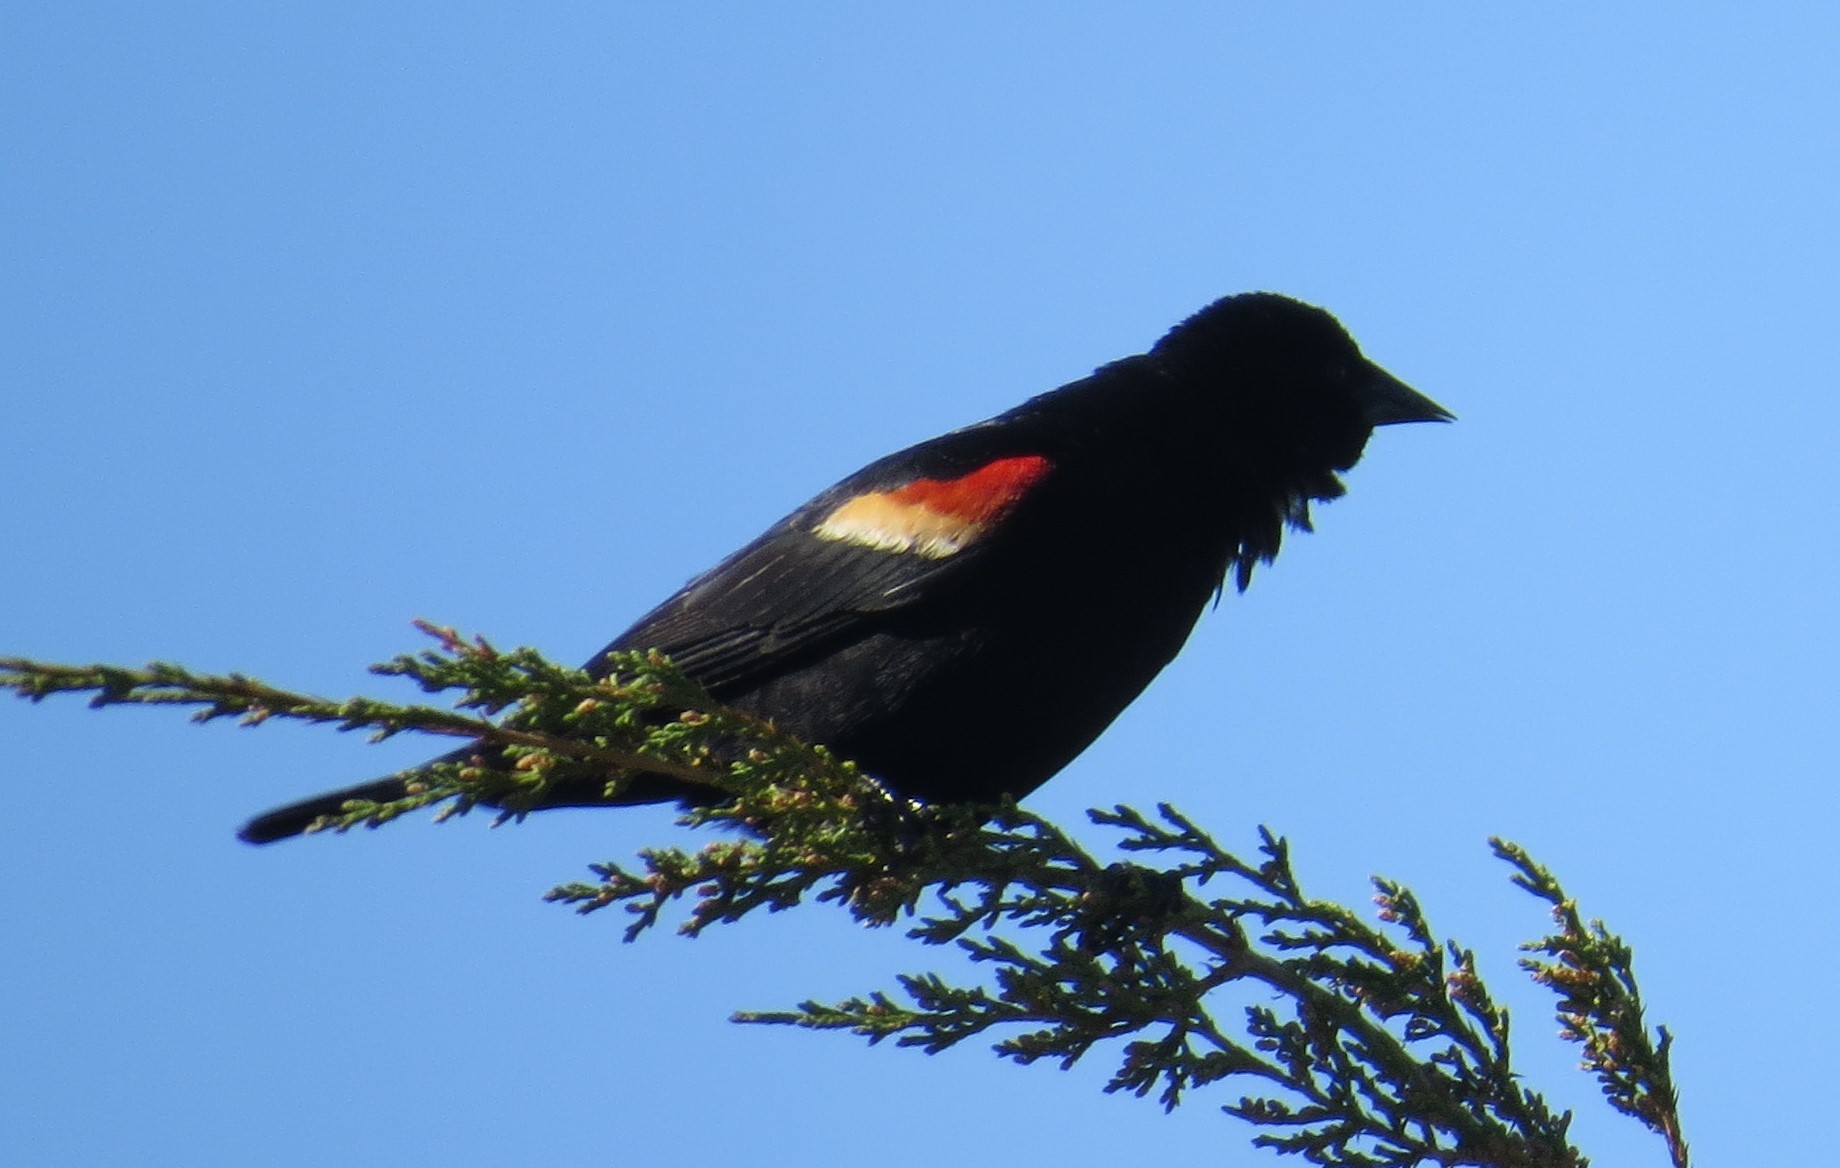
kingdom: Animalia
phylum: Chordata
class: Aves
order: Passeriformes
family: Icteridae
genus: Agelaius
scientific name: Agelaius phoeniceus
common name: Red-winged blackbird
